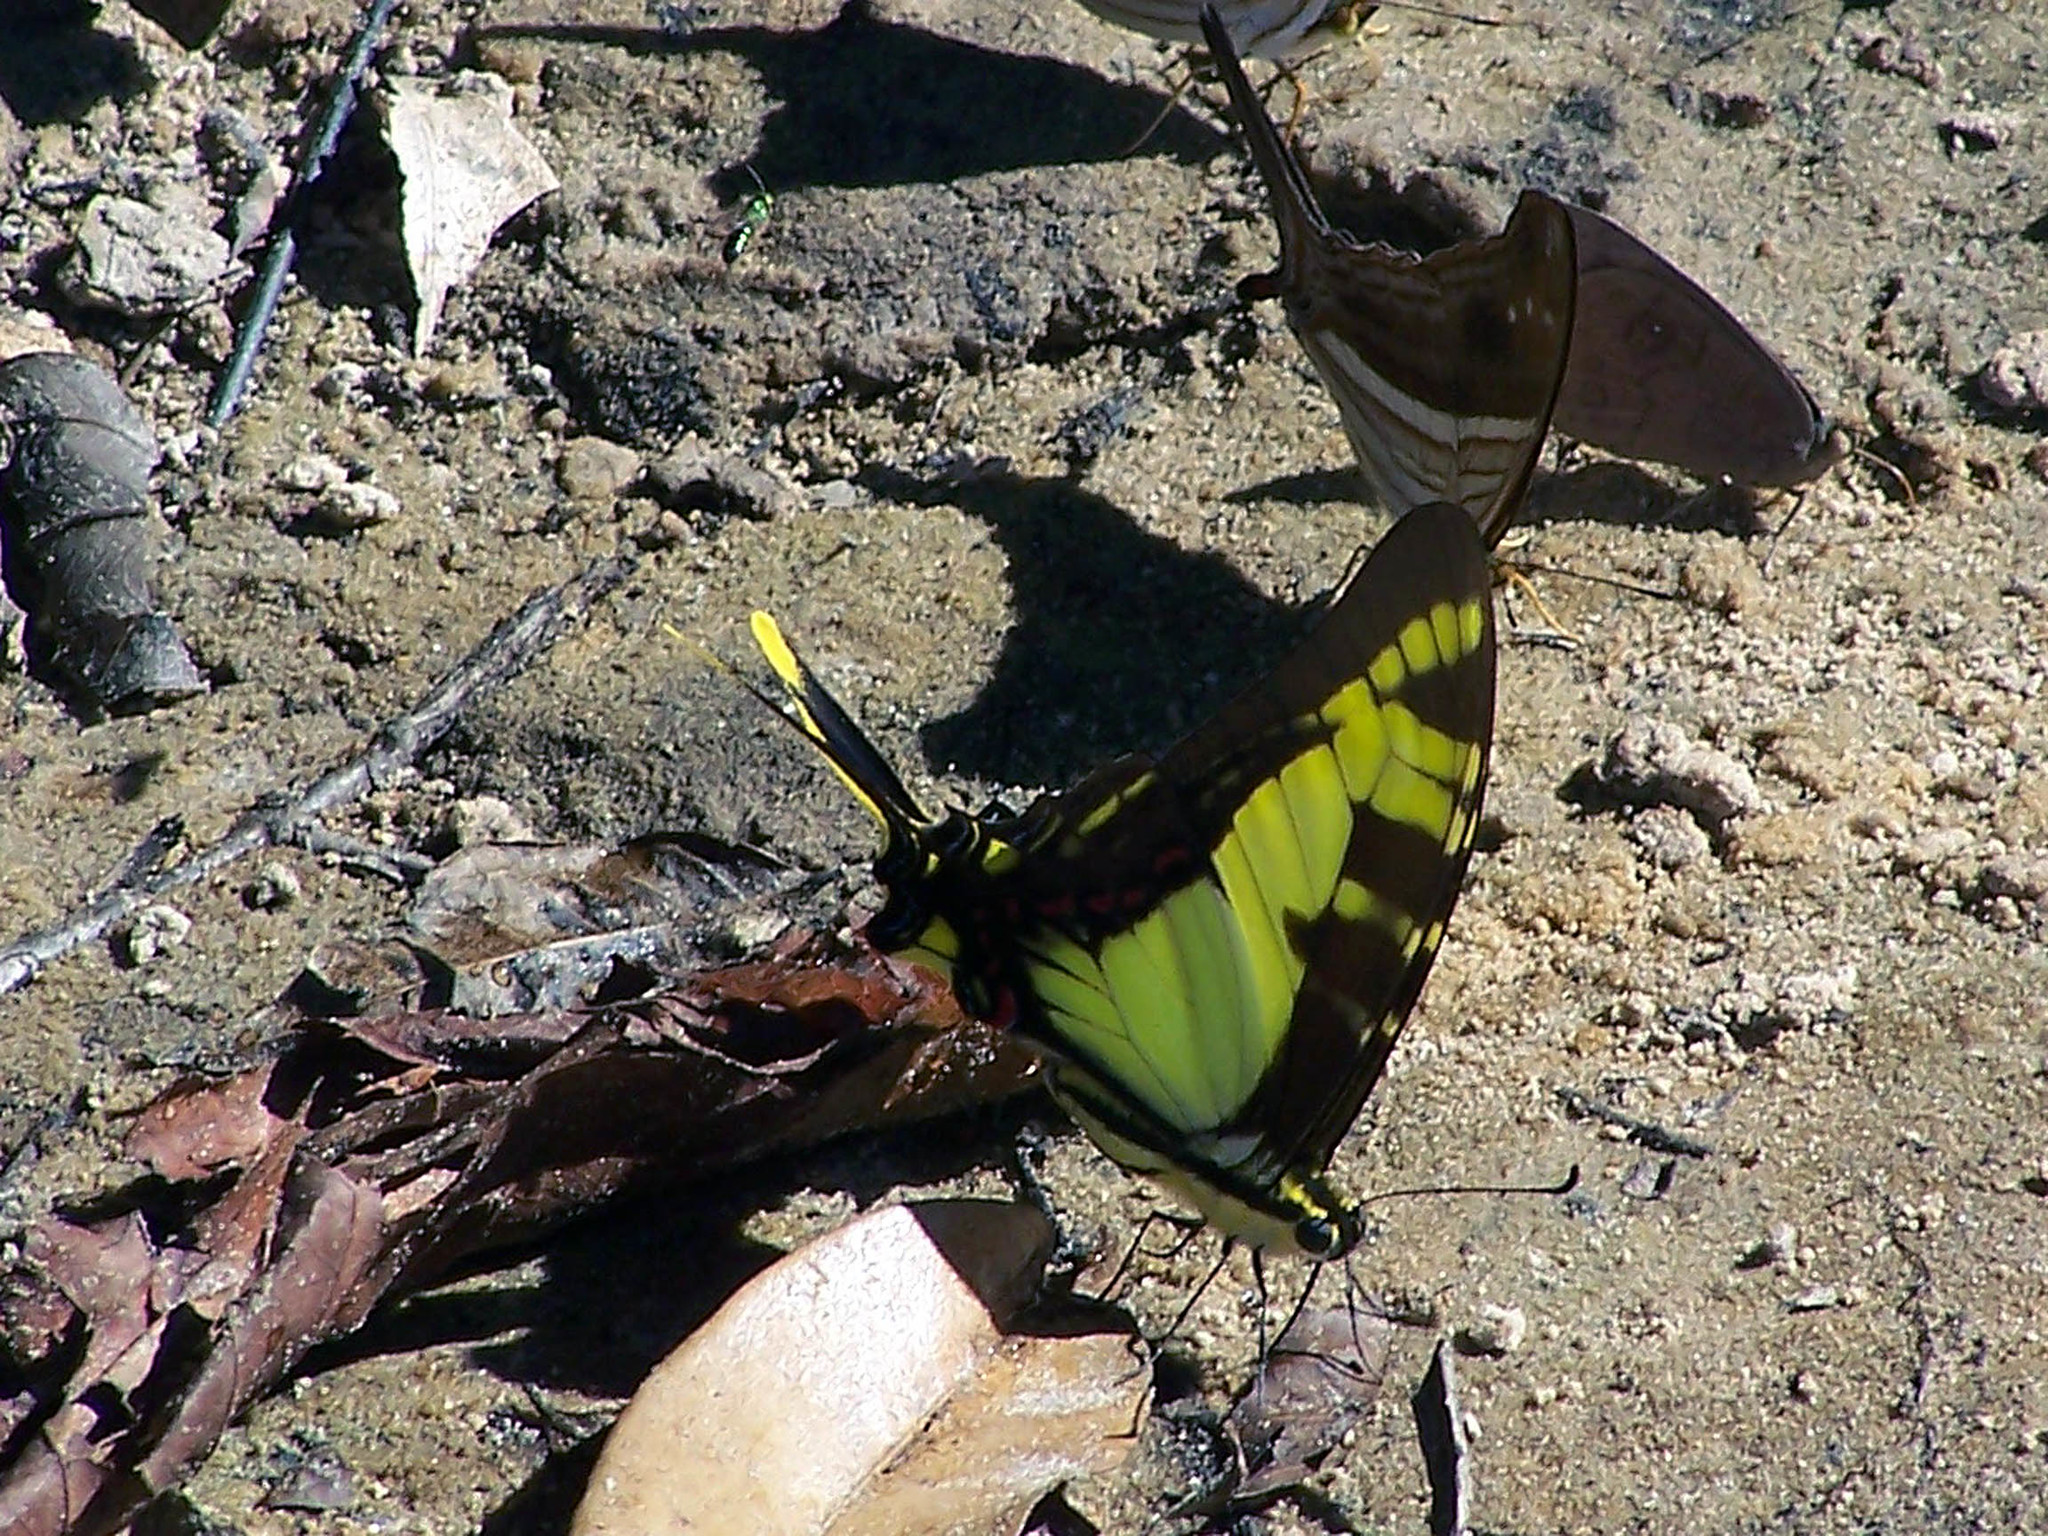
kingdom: Animalia
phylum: Arthropoda
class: Insecta
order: Lepidoptera
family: Papilionidae
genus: Eurytides
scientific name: Eurytides
